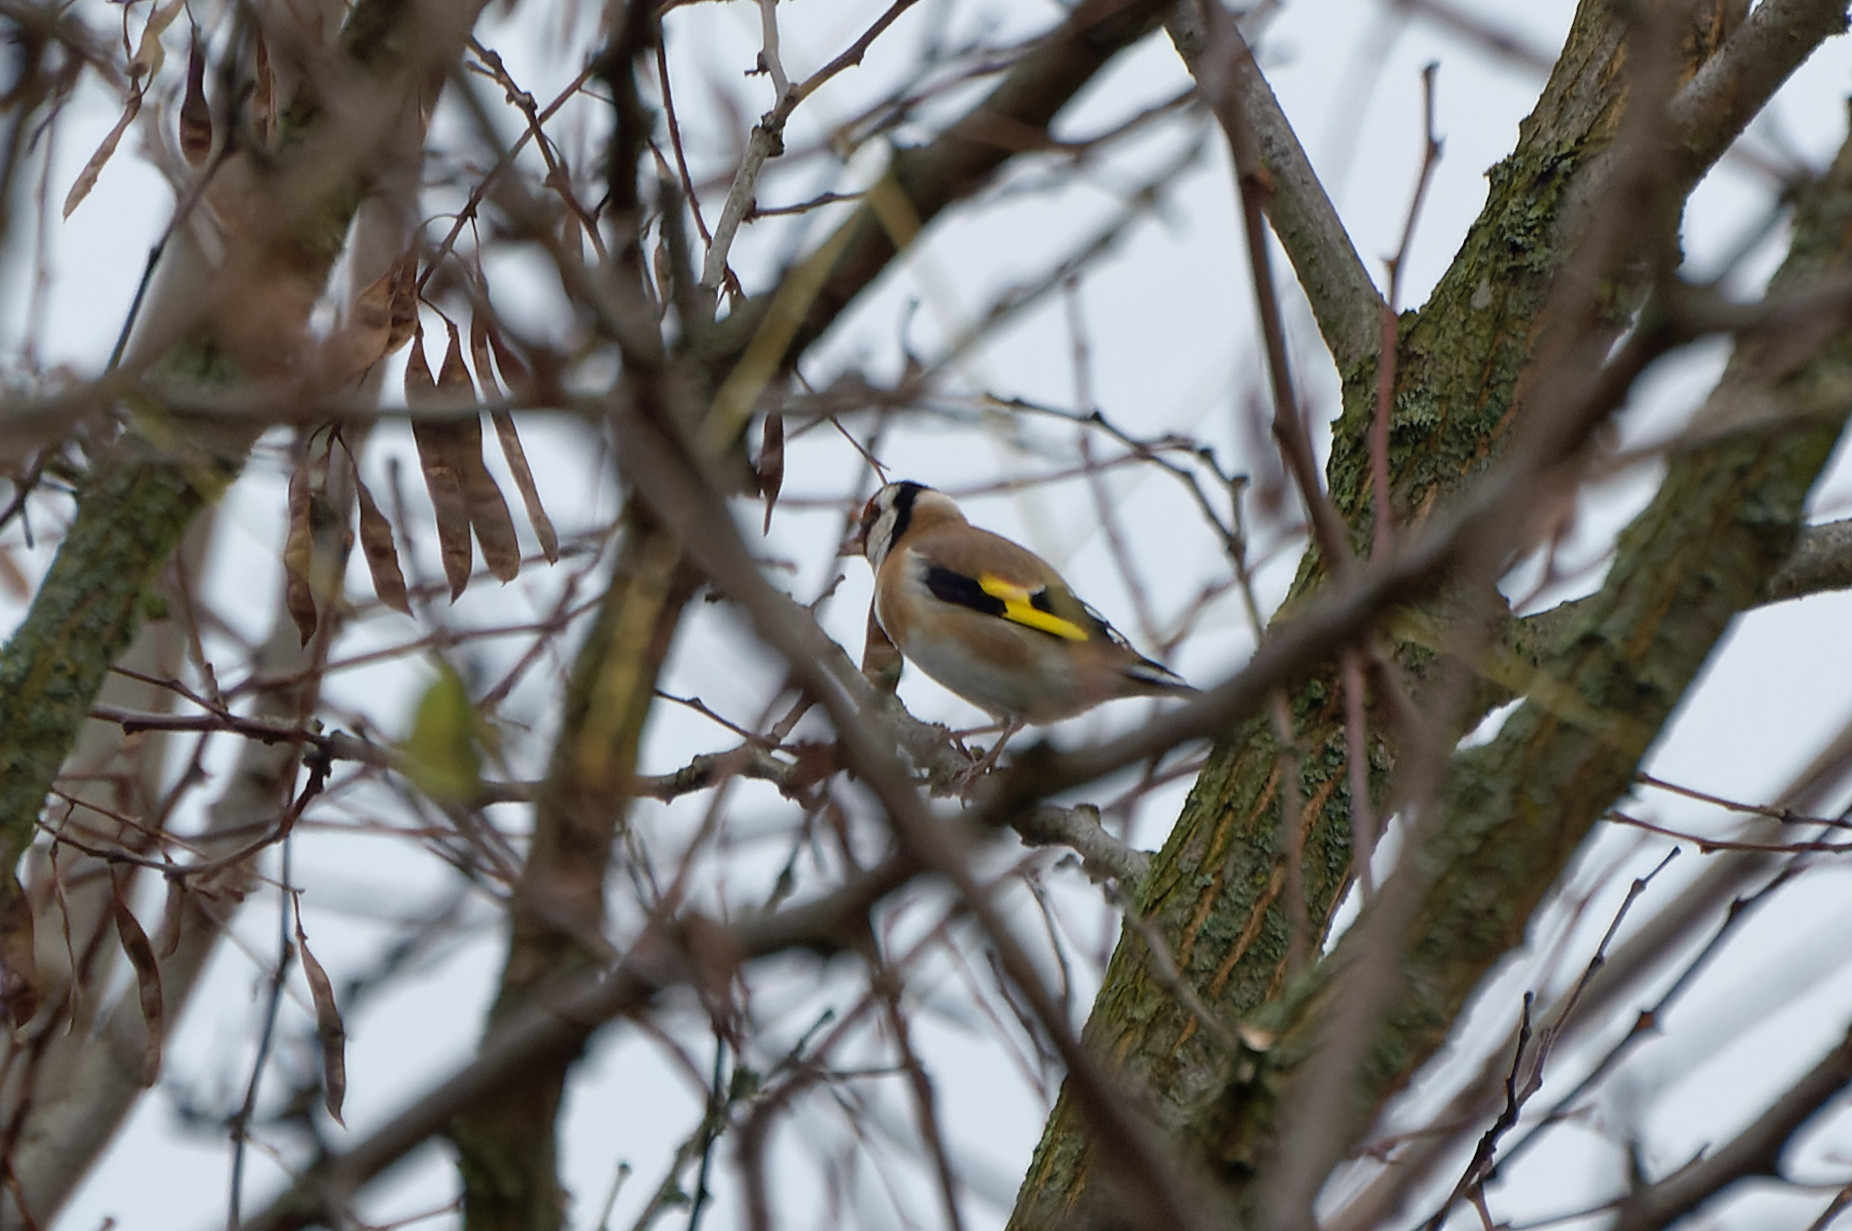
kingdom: Animalia
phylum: Chordata
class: Aves
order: Passeriformes
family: Fringillidae
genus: Carduelis
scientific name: Carduelis carduelis
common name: European goldfinch
